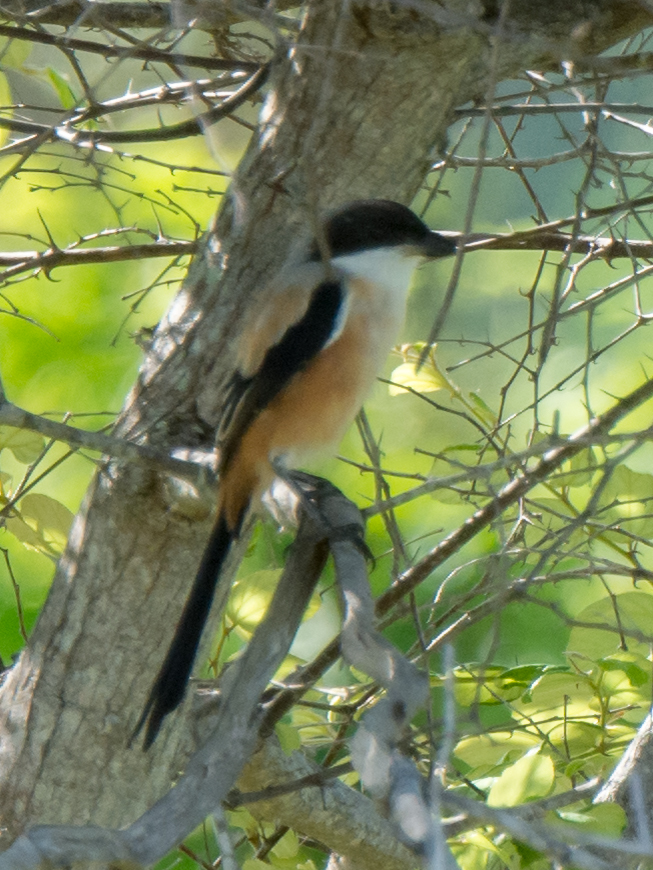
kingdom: Animalia
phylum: Chordata
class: Aves
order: Passeriformes
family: Laniidae
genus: Lanius
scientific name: Lanius schach
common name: Long-tailed shrike
